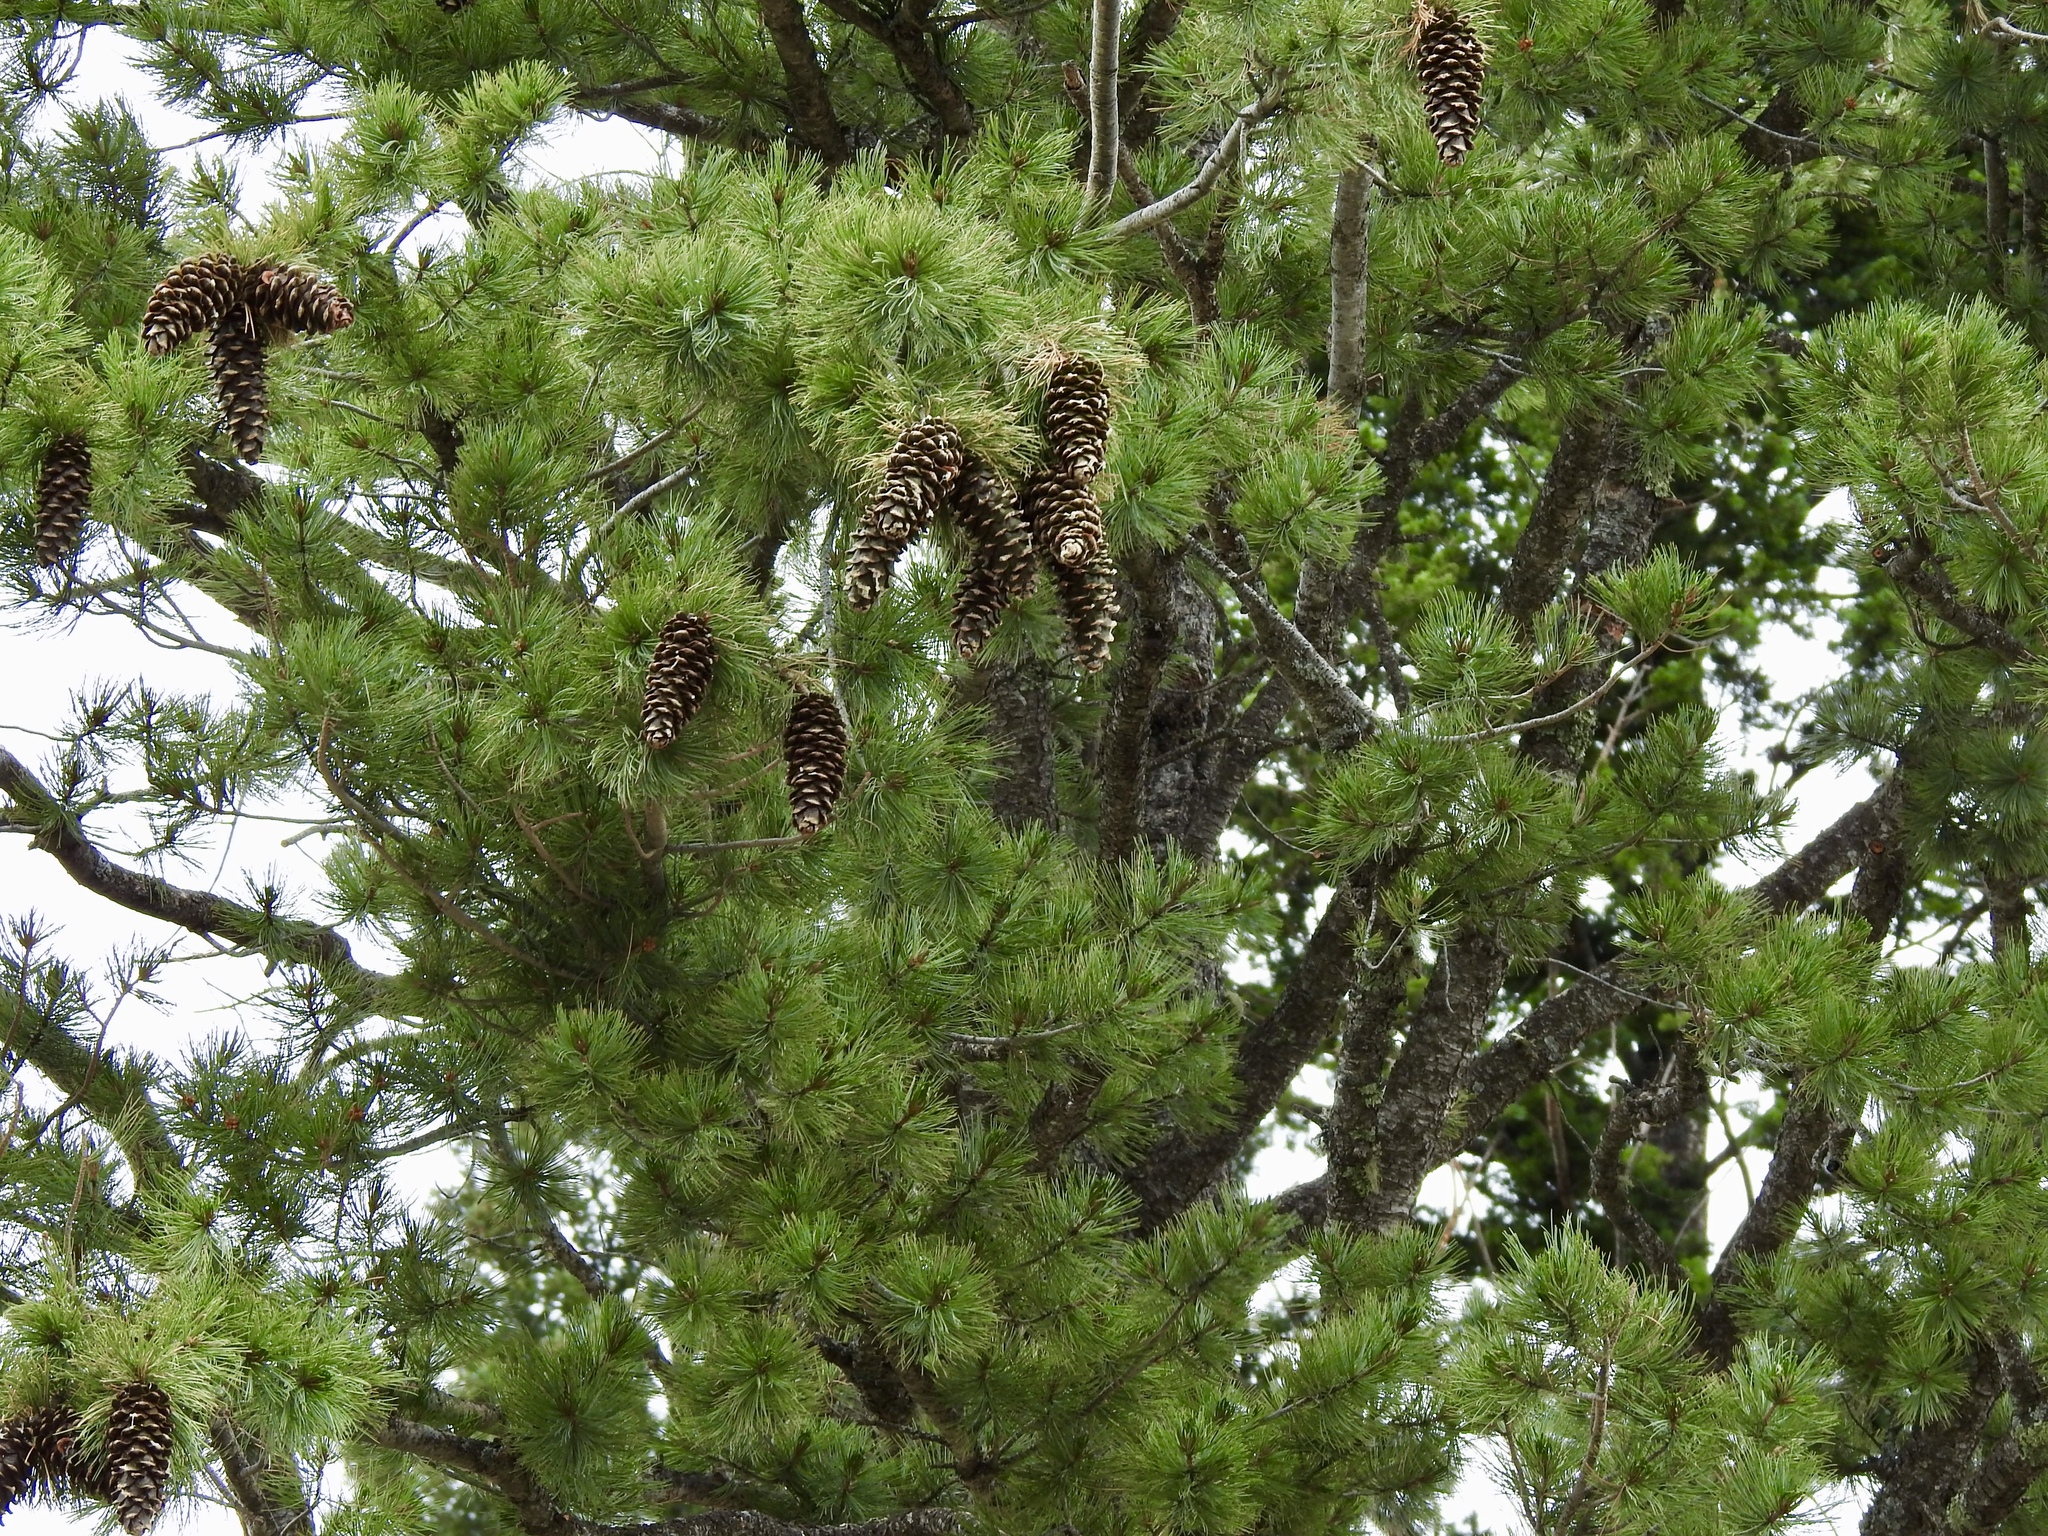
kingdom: Plantae
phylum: Tracheophyta
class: Pinopsida
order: Pinales
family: Pinaceae
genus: Pinus
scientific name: Pinus strobiformis
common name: Southwestern white pine
